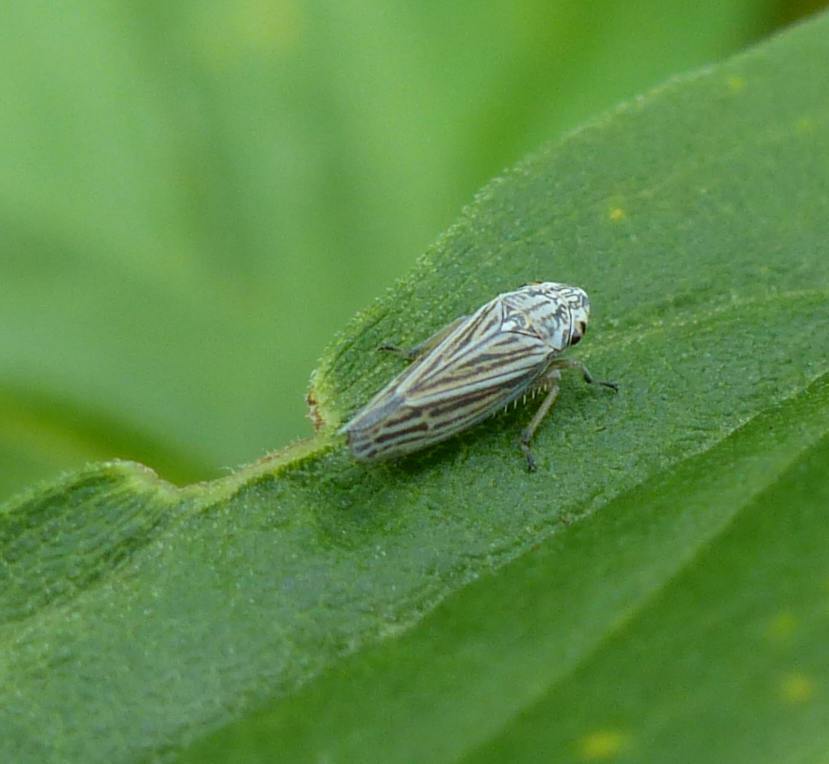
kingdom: Animalia
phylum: Arthropoda
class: Insecta
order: Hemiptera
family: Cicadellidae
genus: Neokolla
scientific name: Neokolla hieroglyphica
